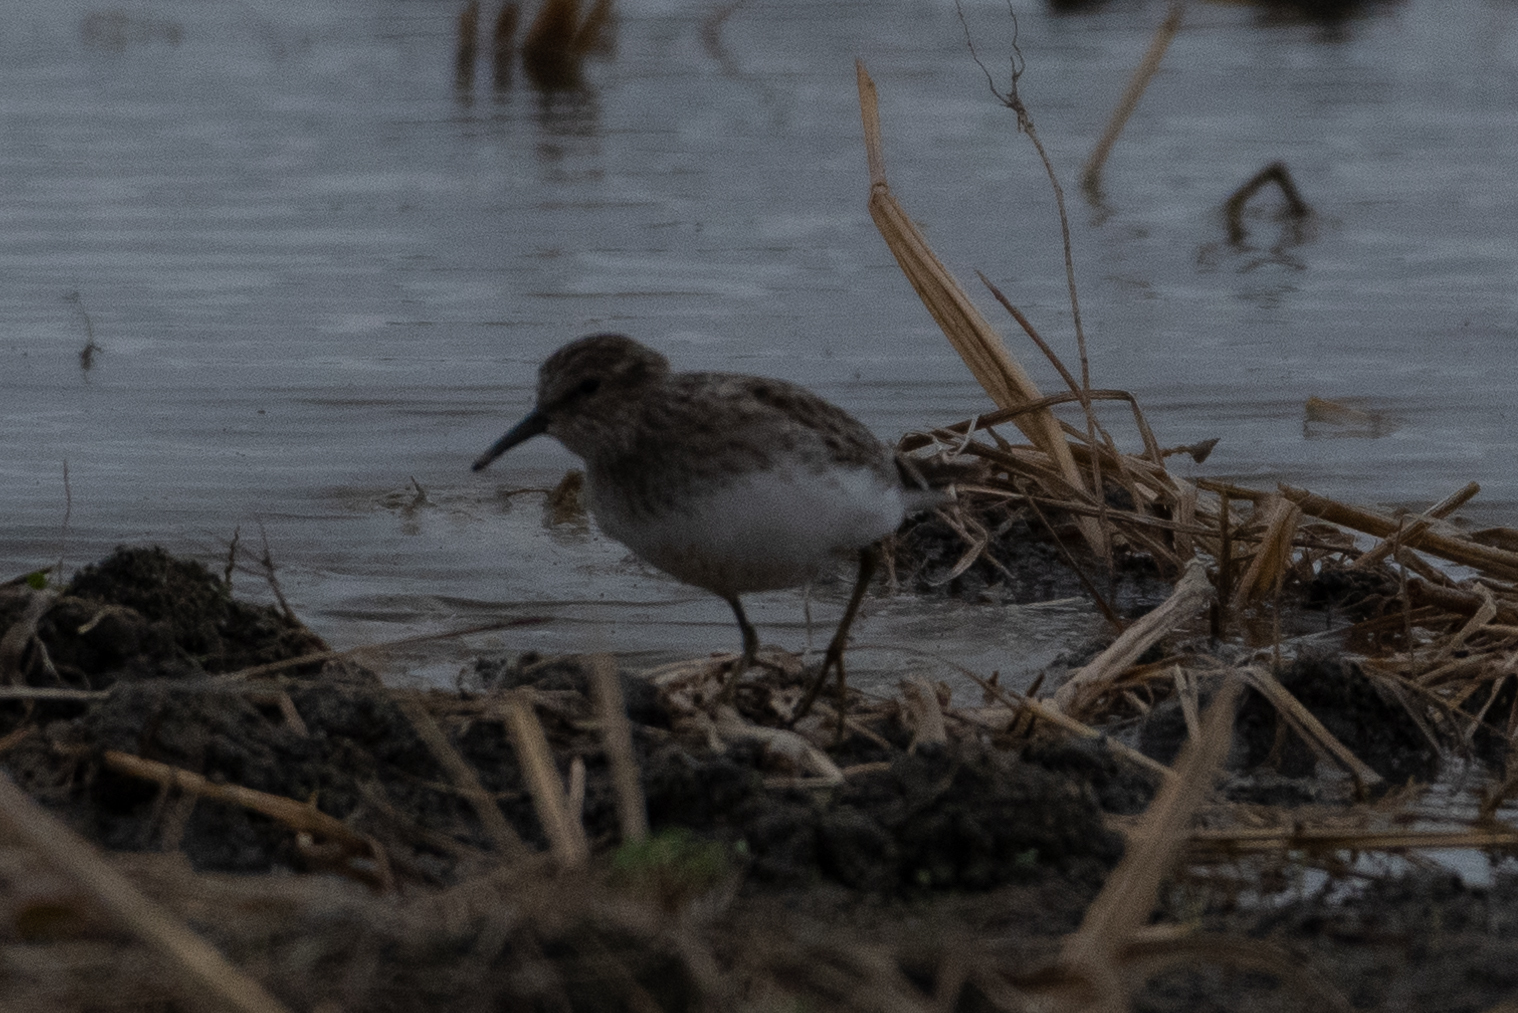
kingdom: Animalia
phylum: Chordata
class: Aves
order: Charadriiformes
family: Scolopacidae
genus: Calidris
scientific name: Calidris minutilla
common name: Least sandpiper
